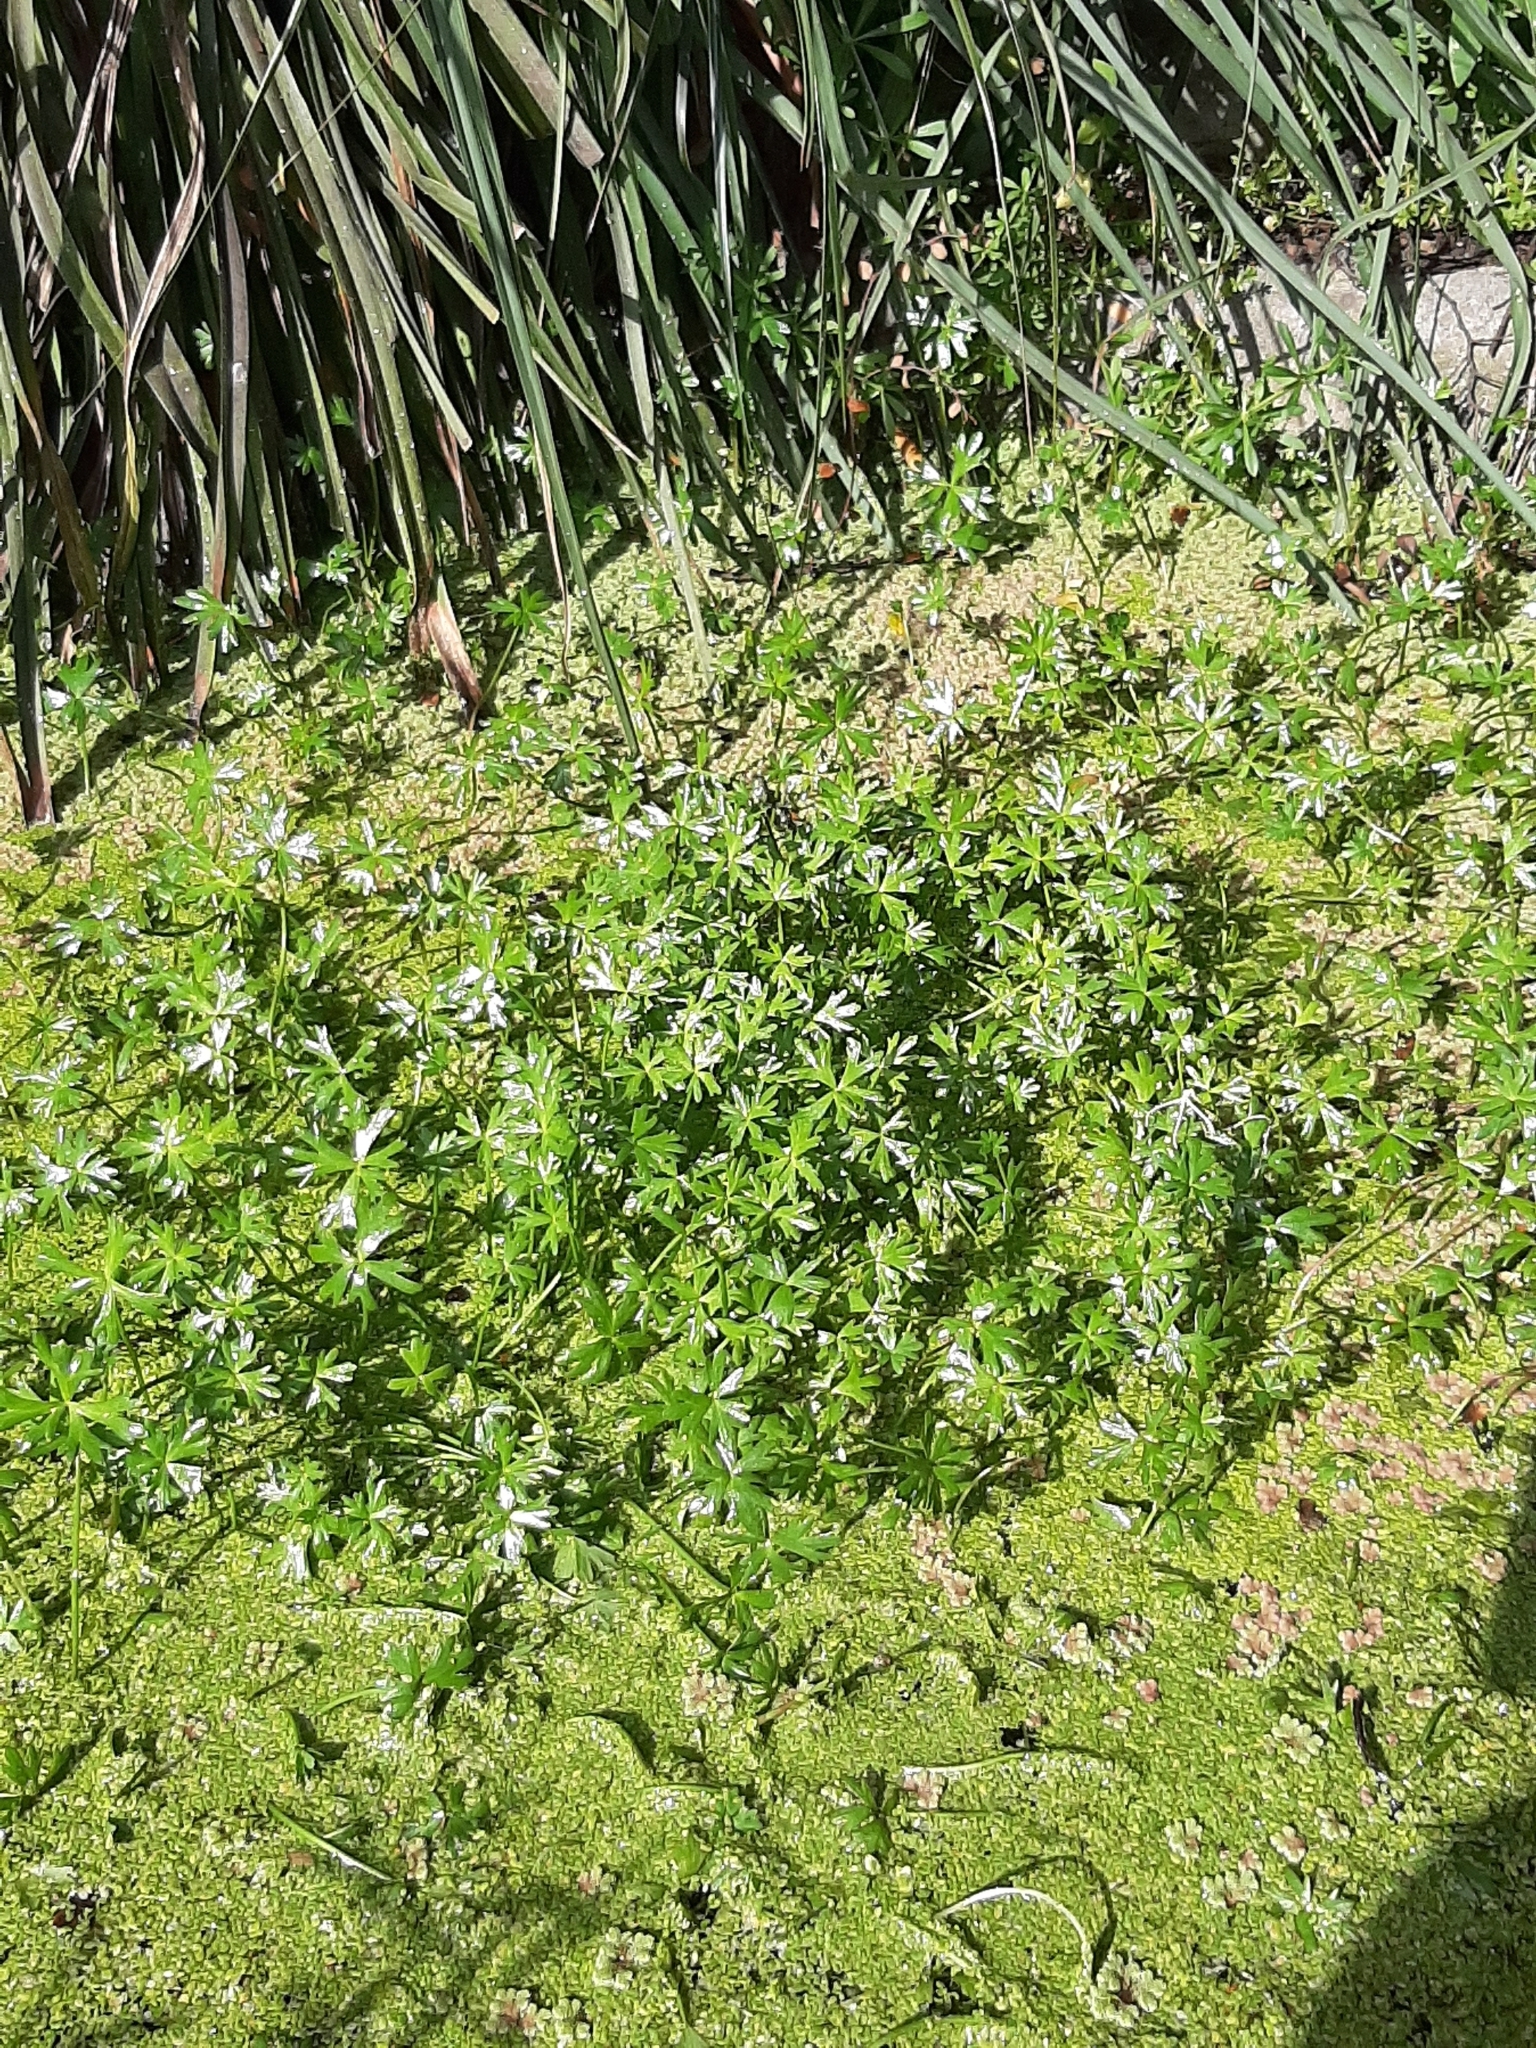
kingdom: Plantae
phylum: Tracheophyta
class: Magnoliopsida
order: Ranunculales
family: Ranunculaceae
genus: Ranunculus
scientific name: Ranunculus glabrifolius
